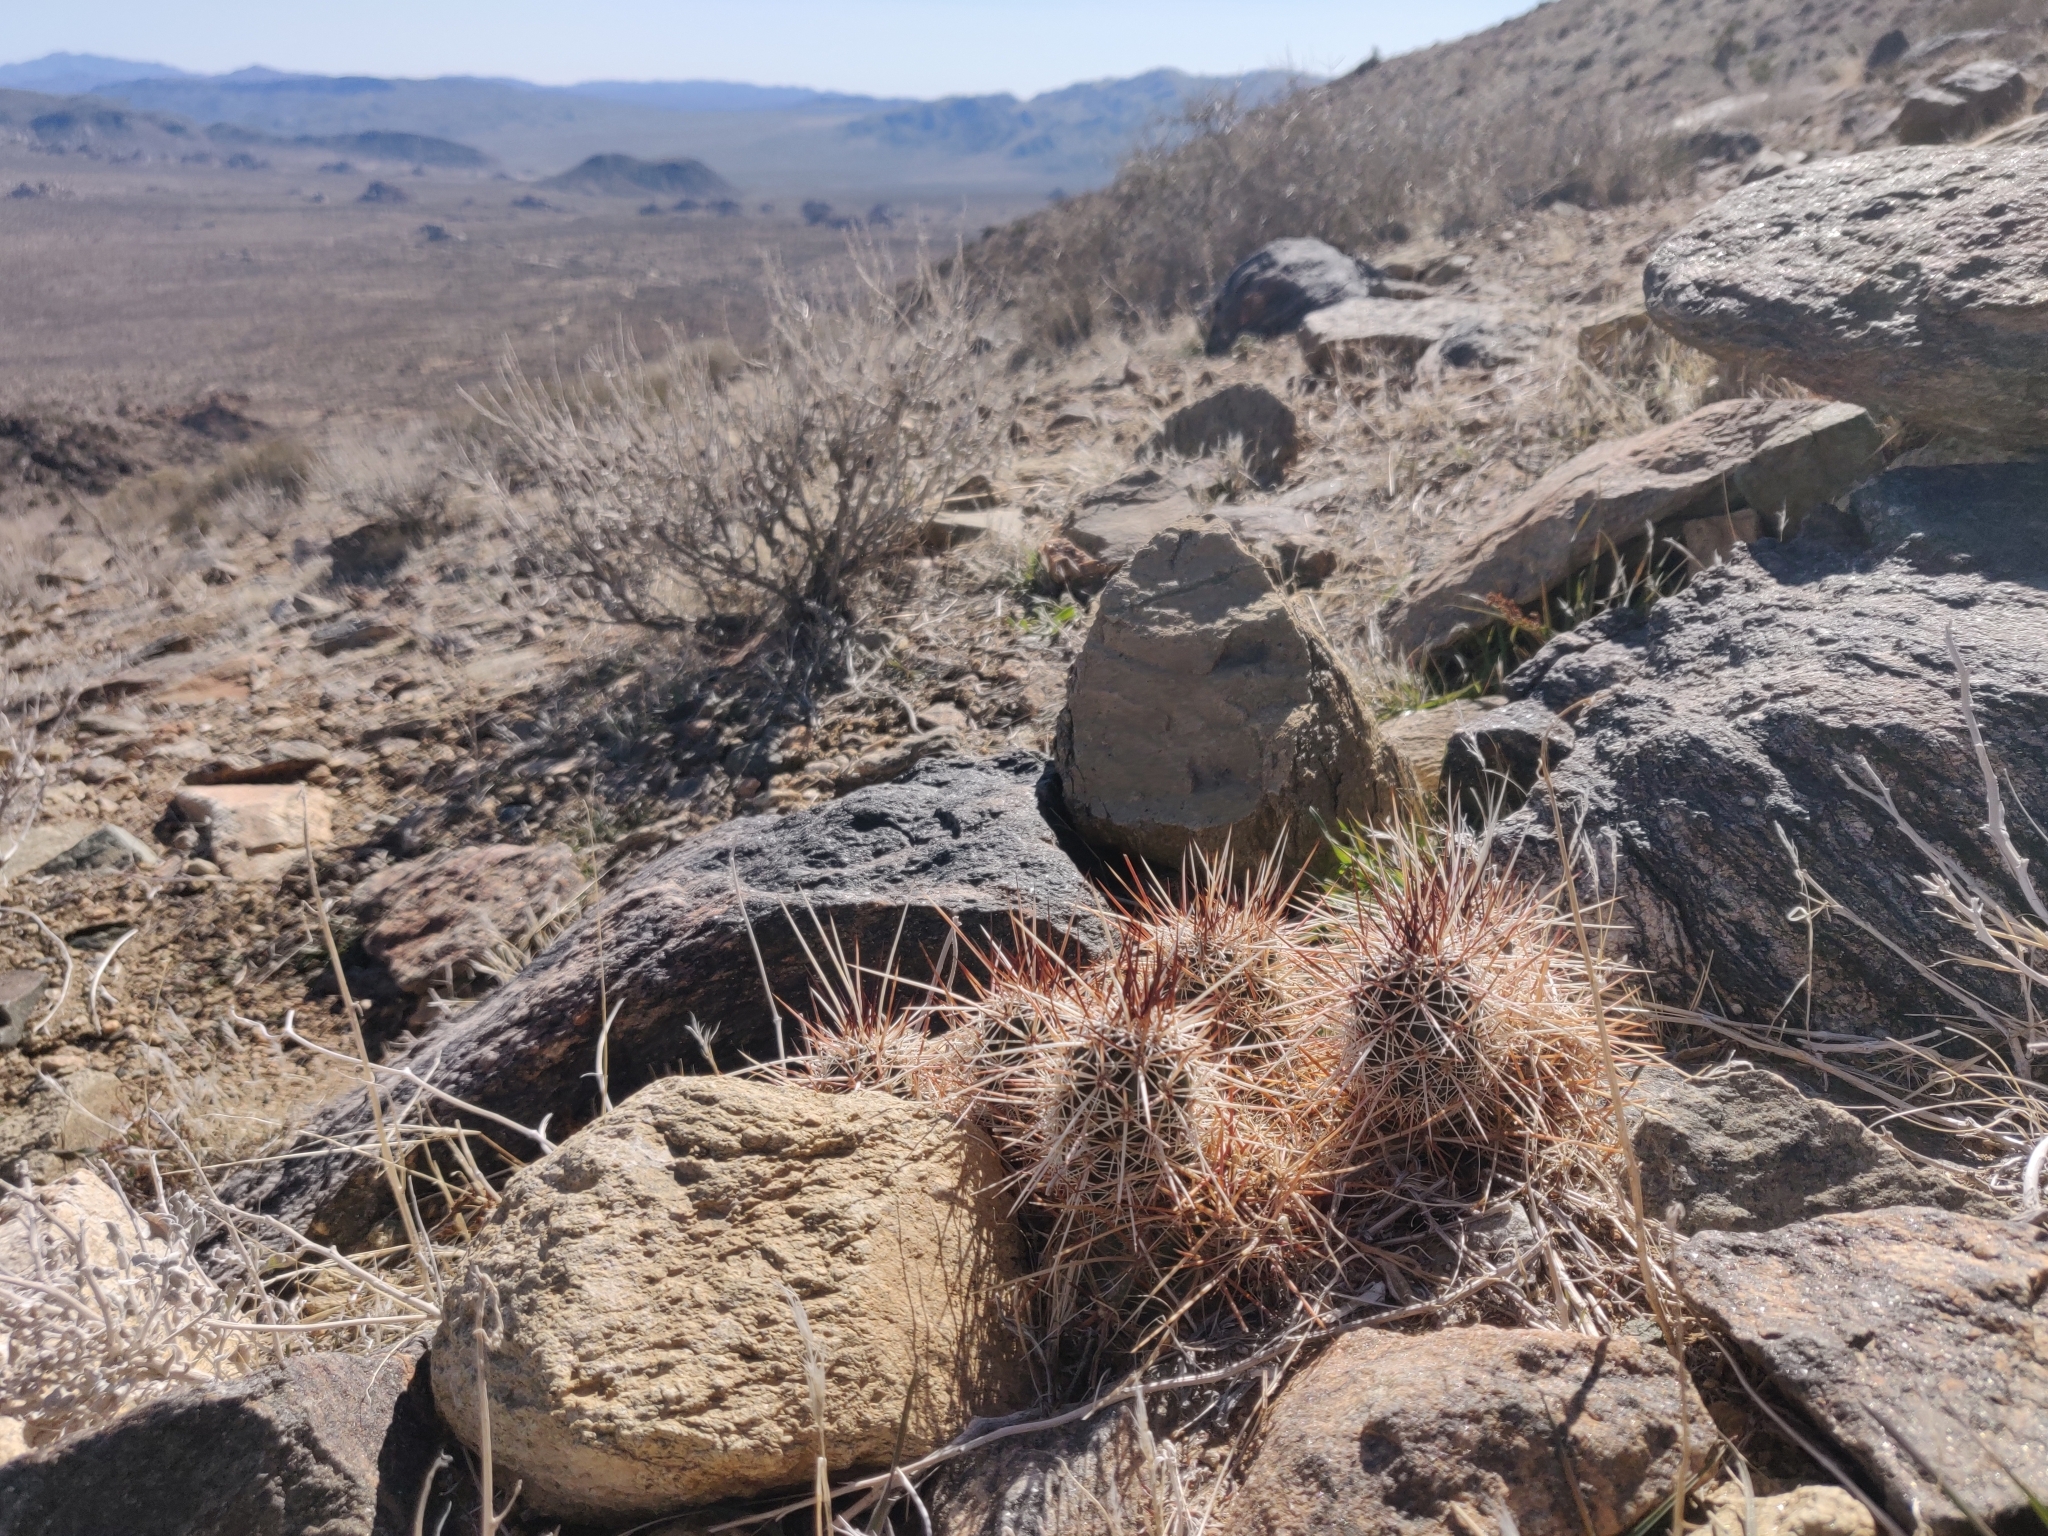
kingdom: Plantae
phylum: Tracheophyta
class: Magnoliopsida
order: Caryophyllales
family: Cactaceae
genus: Echinocereus
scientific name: Echinocereus engelmannii
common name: Engelmann's hedgehog cactus
